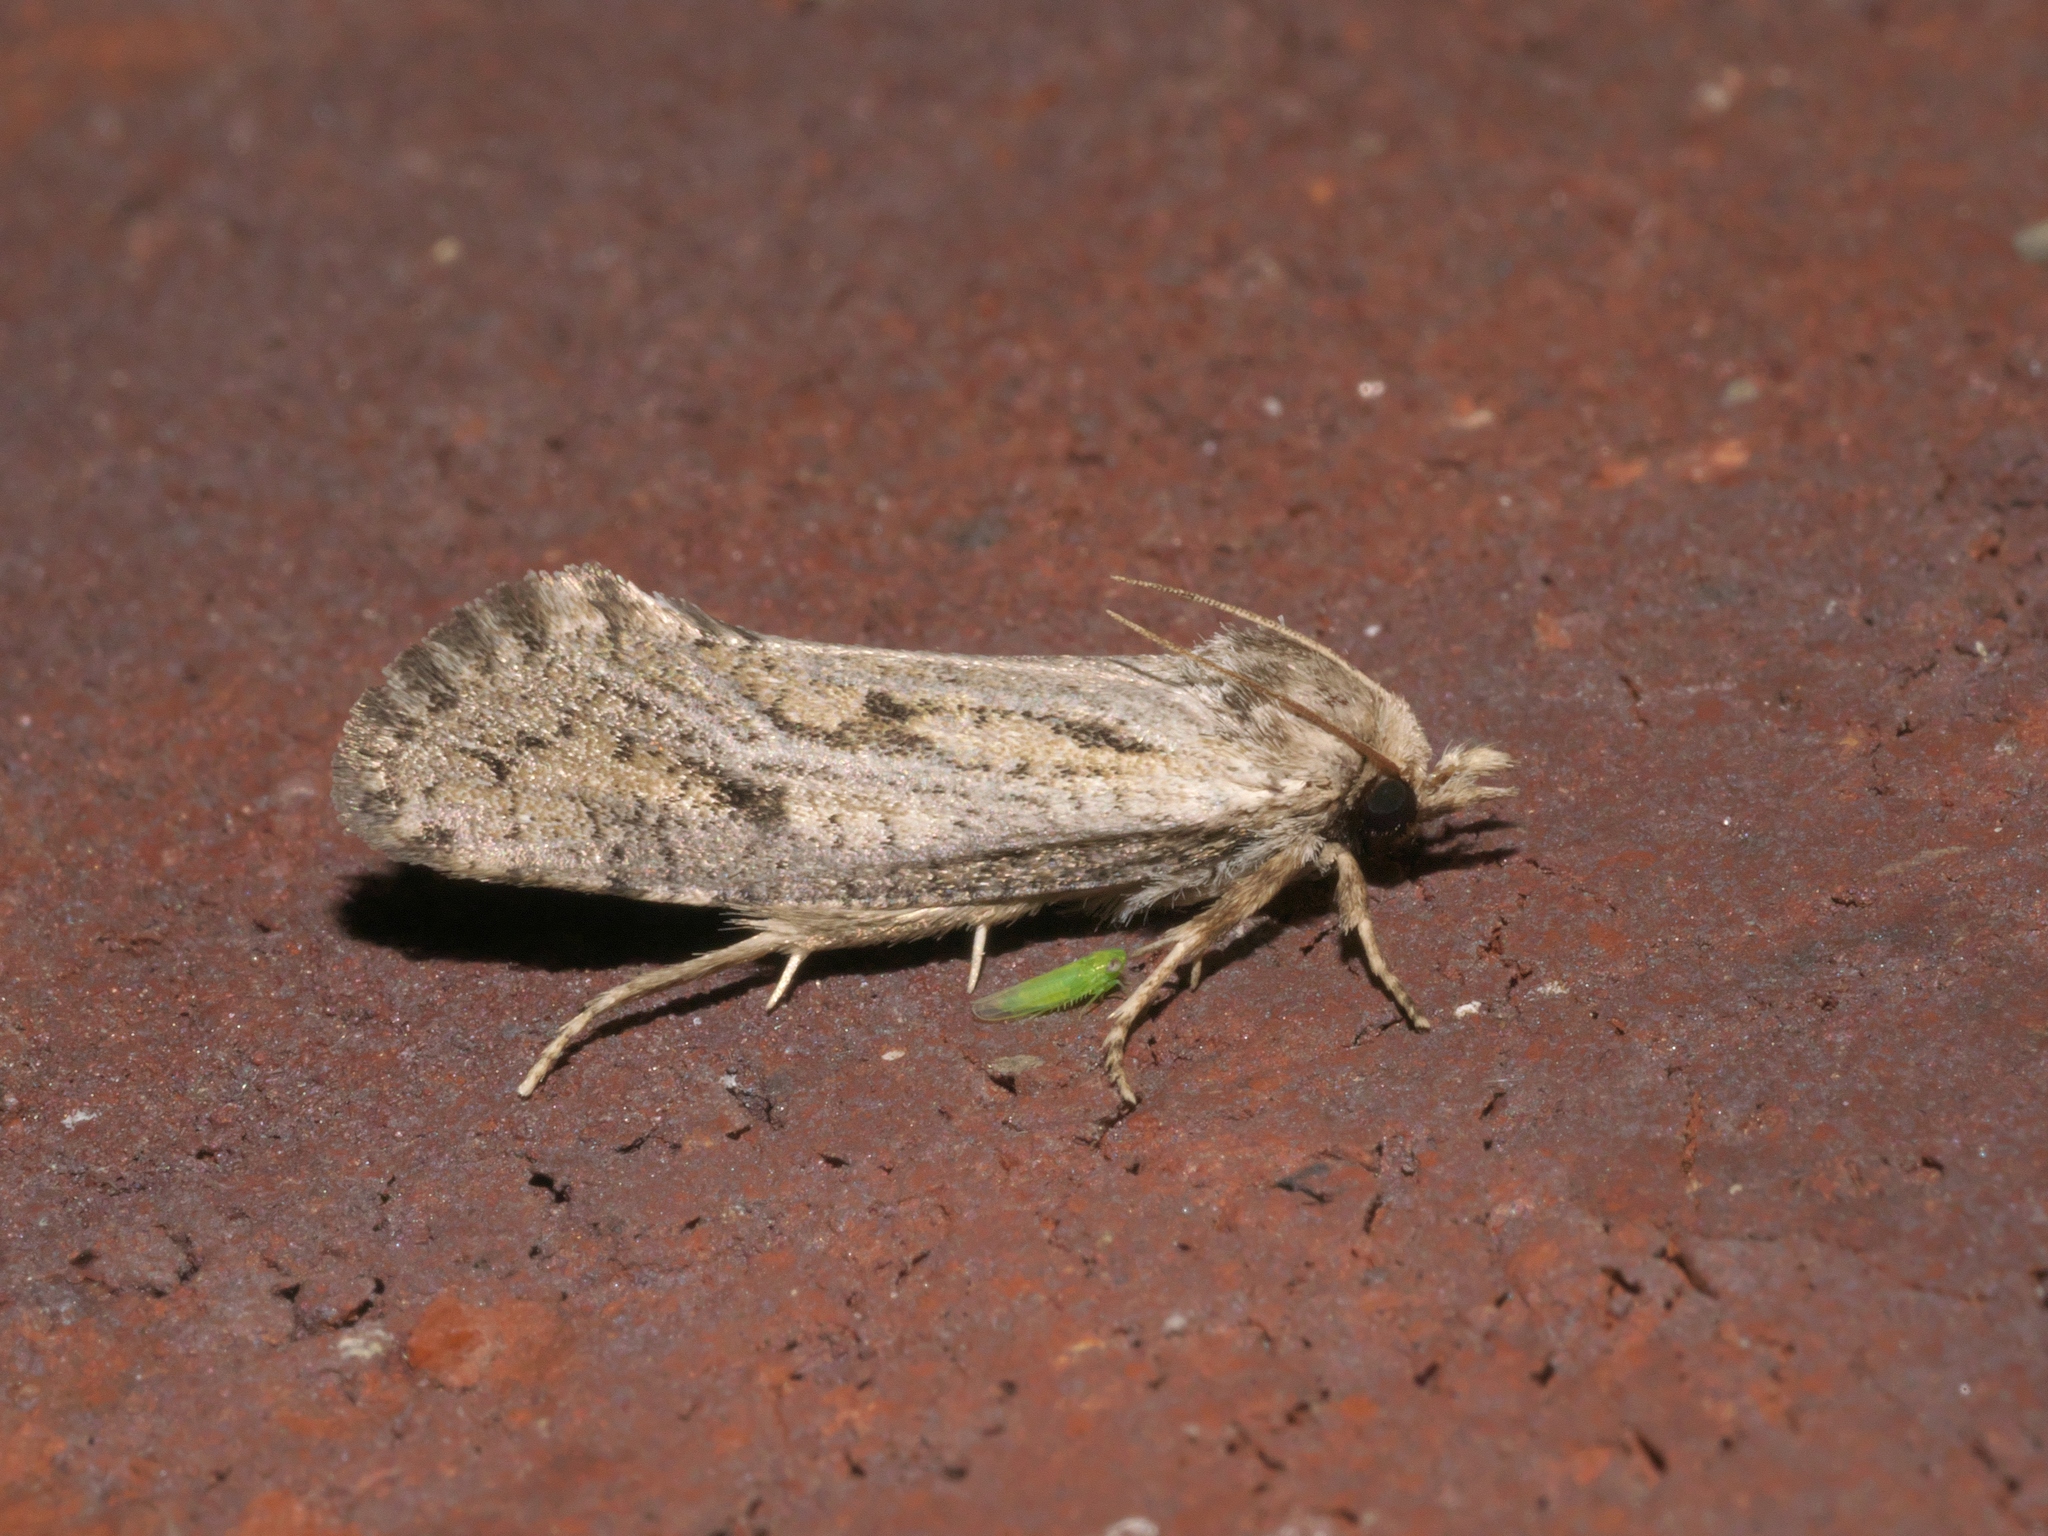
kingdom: Animalia
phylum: Arthropoda
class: Insecta
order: Lepidoptera
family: Tineidae
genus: Acrolophus
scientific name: Acrolophus popeanella
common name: Clemens' grass tubeworm moth
